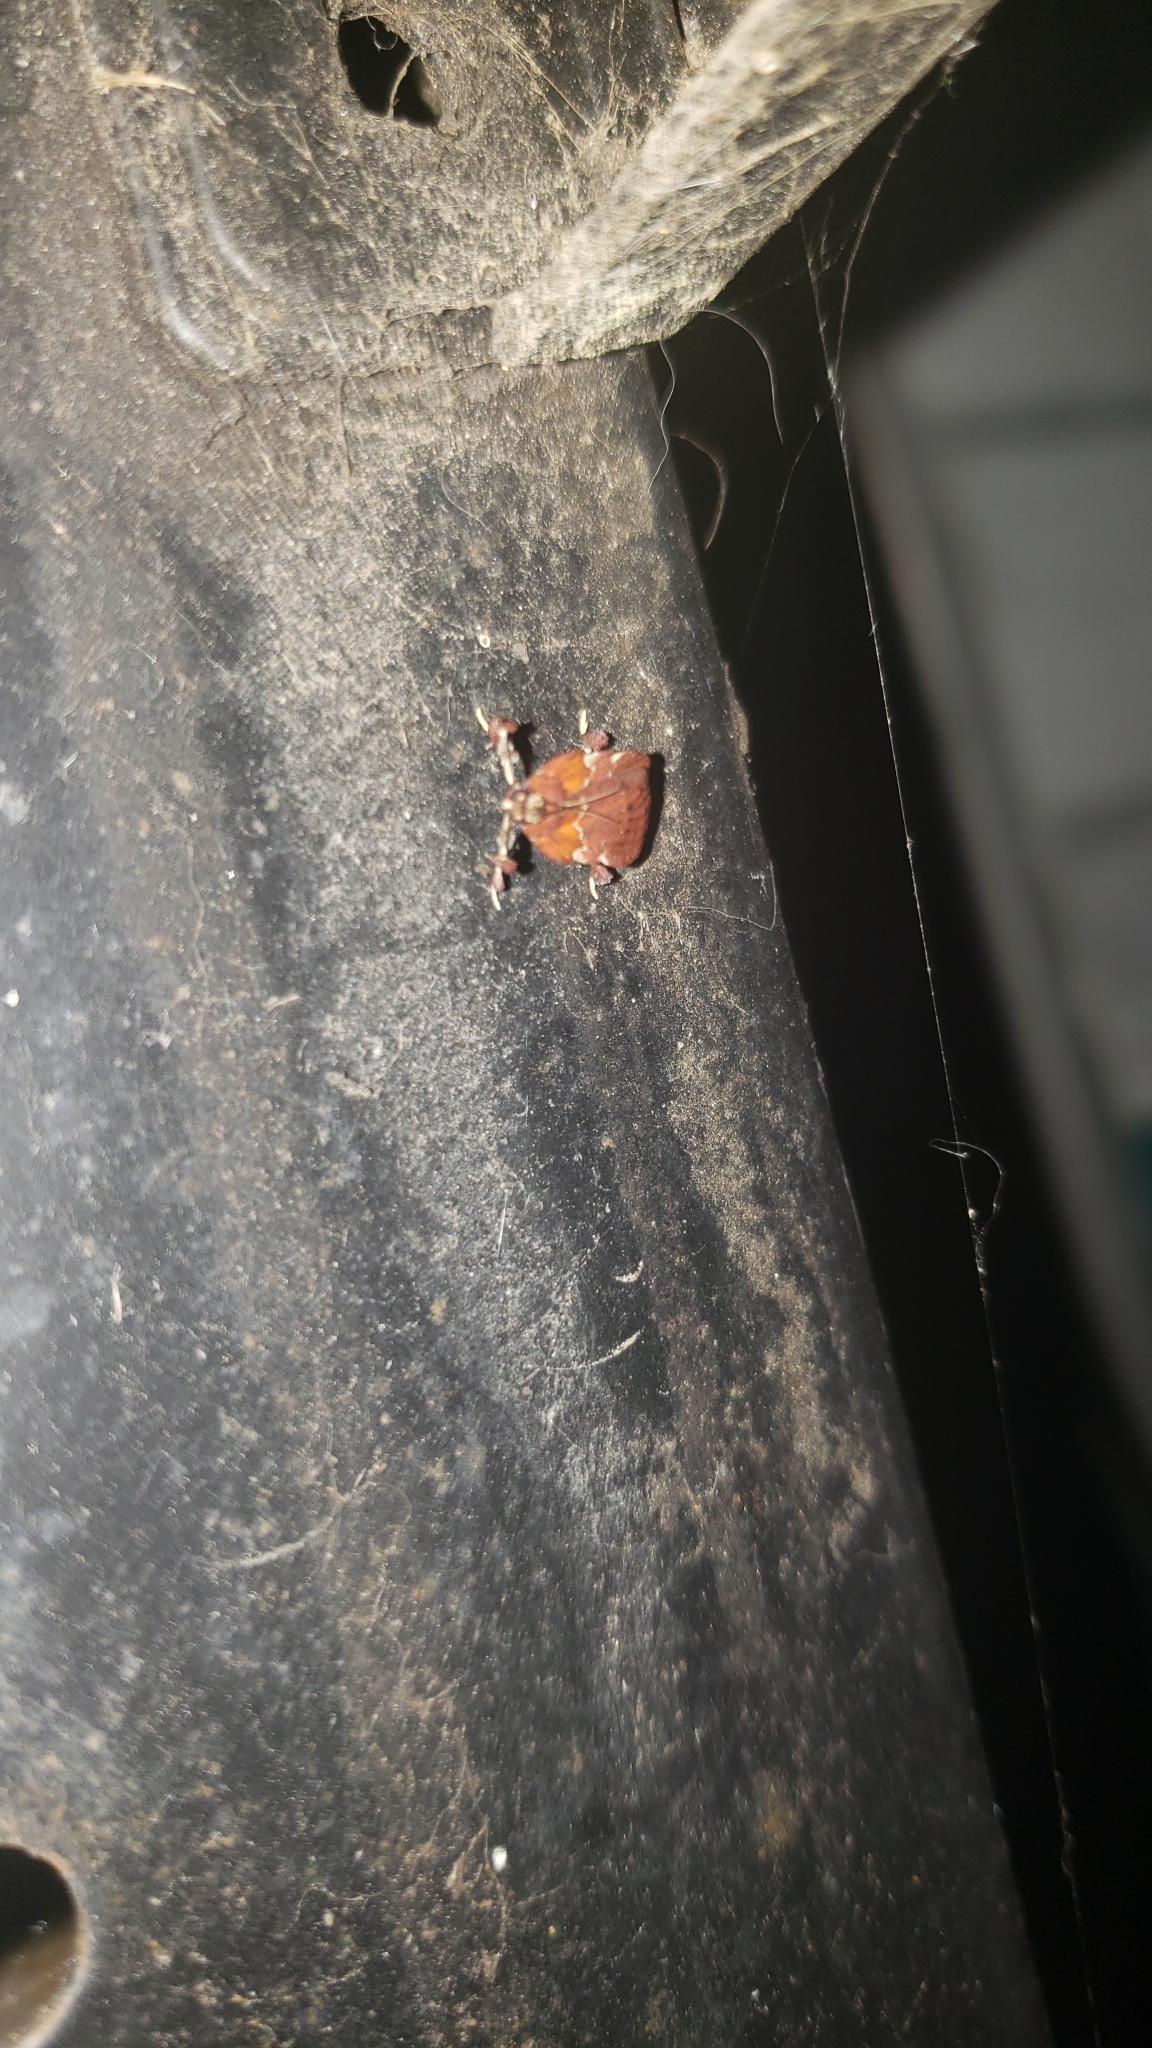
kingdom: Animalia
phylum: Arthropoda
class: Insecta
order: Lepidoptera
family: Pyralidae
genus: Galasa
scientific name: Galasa nigrinodis
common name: Boxwood leaftier moth
